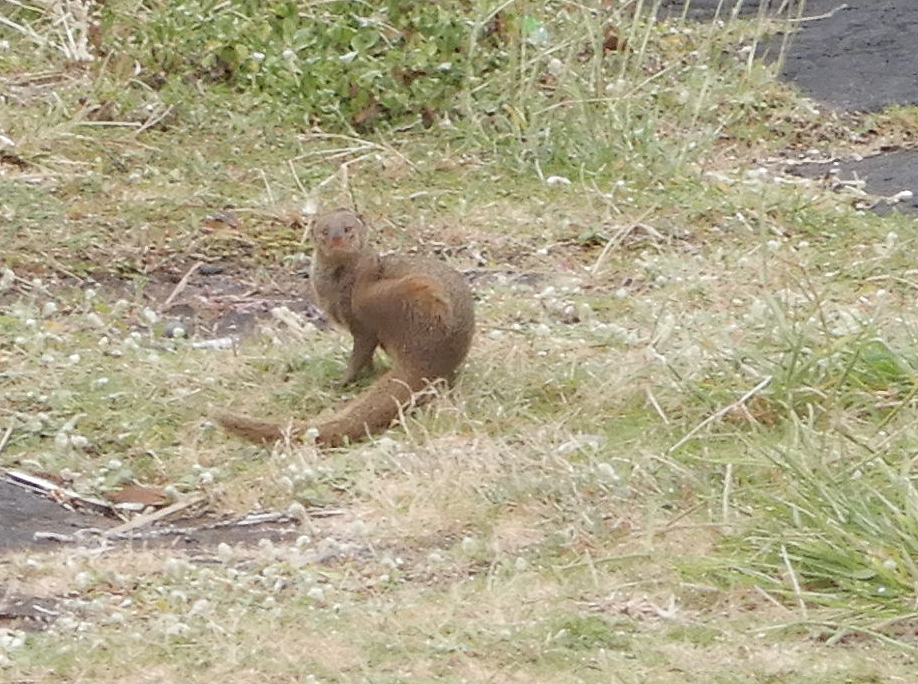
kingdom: Animalia
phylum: Chordata
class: Mammalia
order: Carnivora
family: Herpestidae
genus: Herpestes
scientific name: Herpestes javanicus
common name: Small asian mongoose
